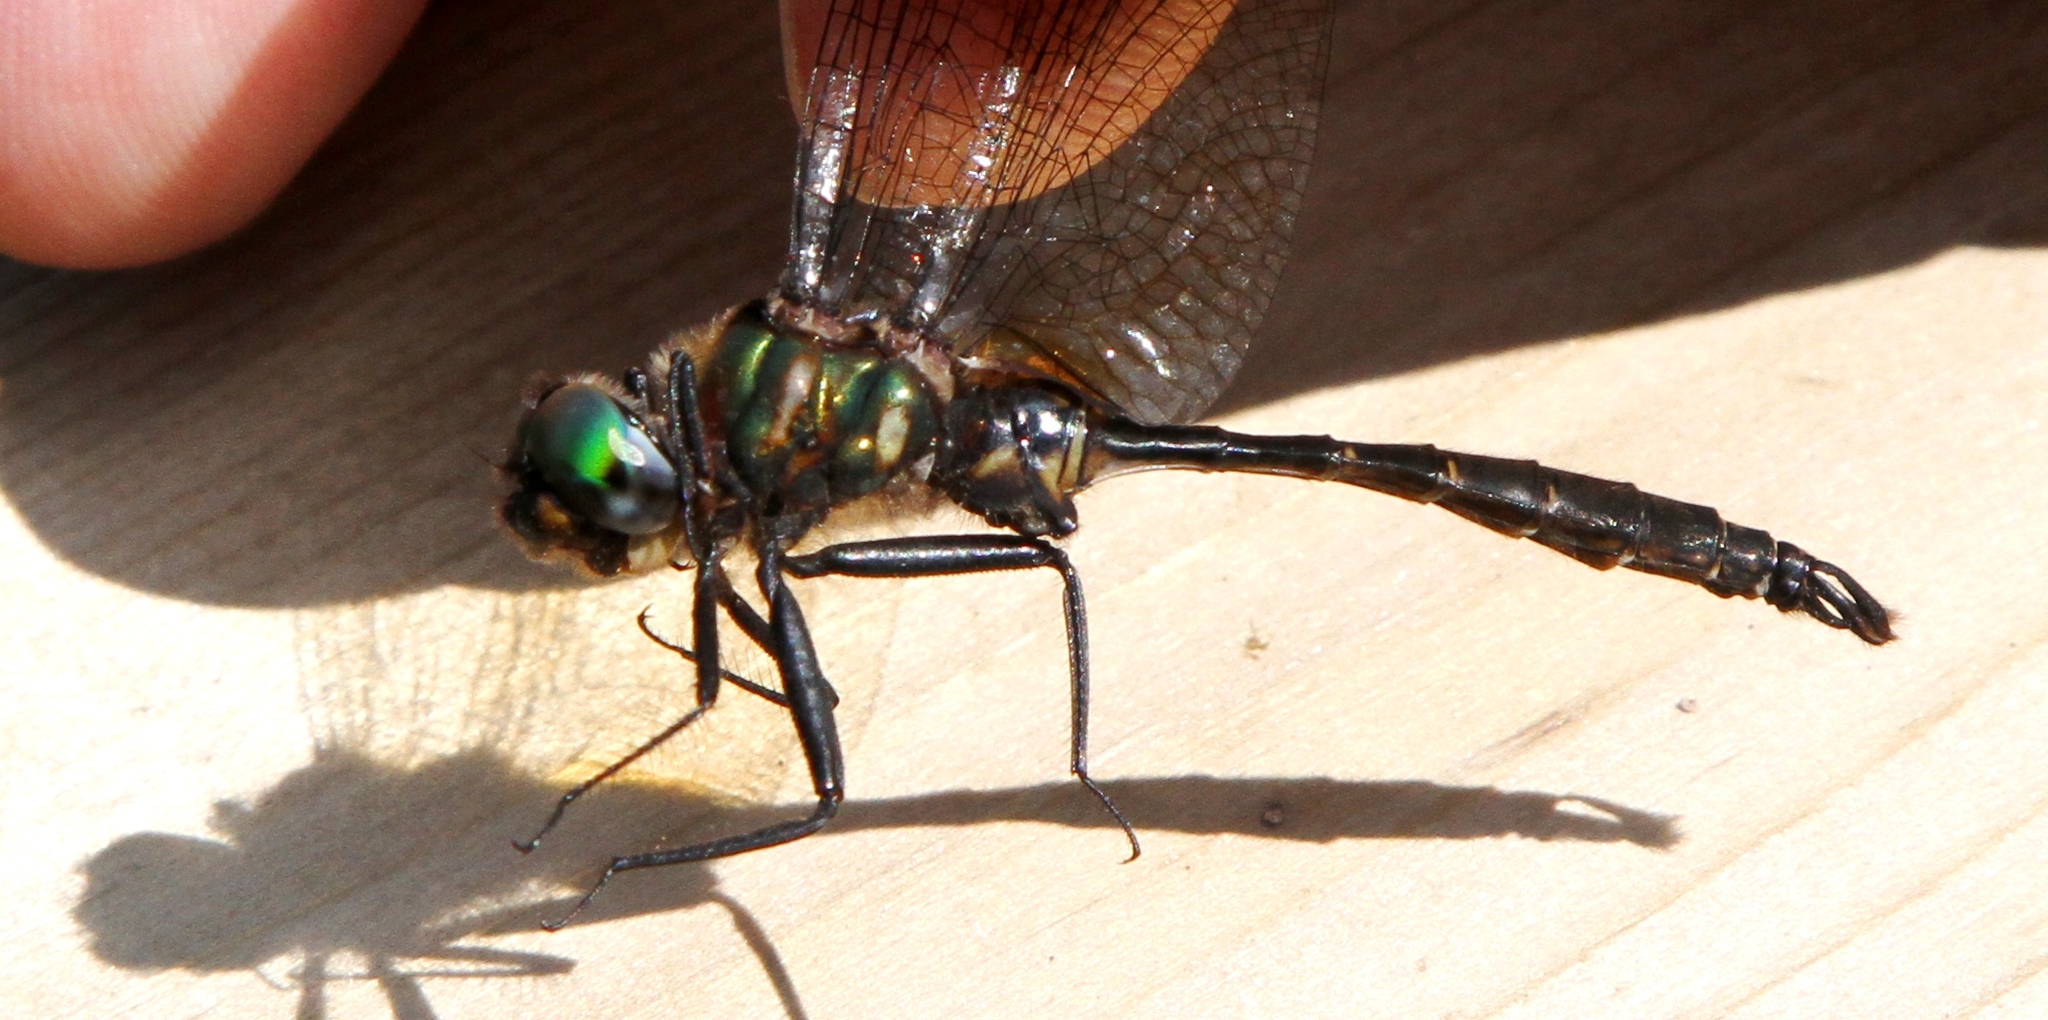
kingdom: Animalia
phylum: Arthropoda
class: Insecta
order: Odonata
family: Corduliidae
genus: Somatochlora
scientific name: Somatochlora walshii
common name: Brush-tipped emerald
